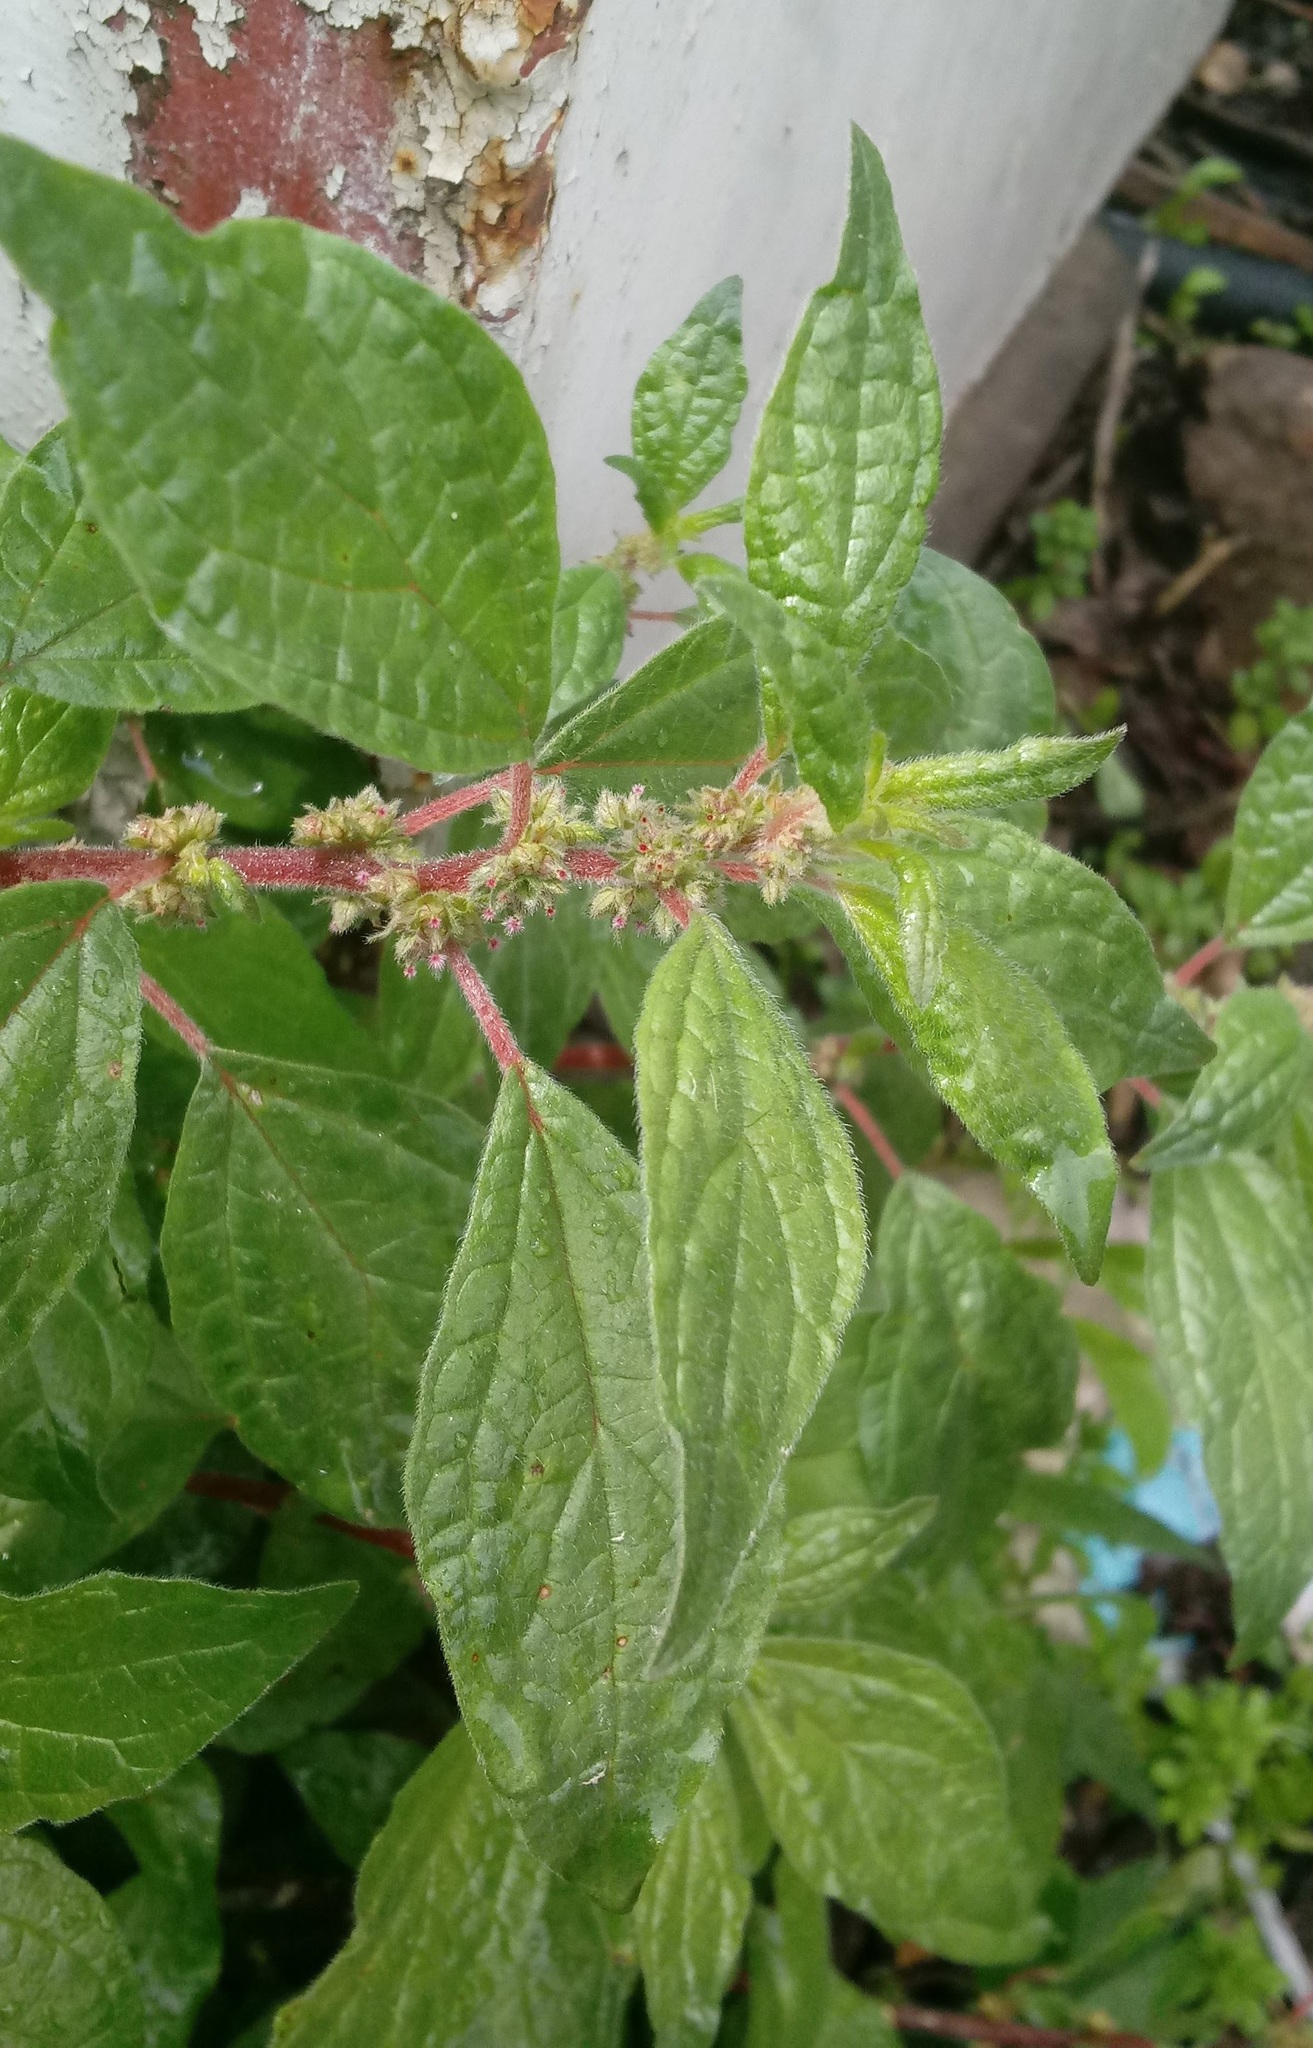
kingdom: Plantae
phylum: Tracheophyta
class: Magnoliopsida
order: Rosales
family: Urticaceae
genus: Parietaria
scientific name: Parietaria judaica
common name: Pellitory-of-the-wall
